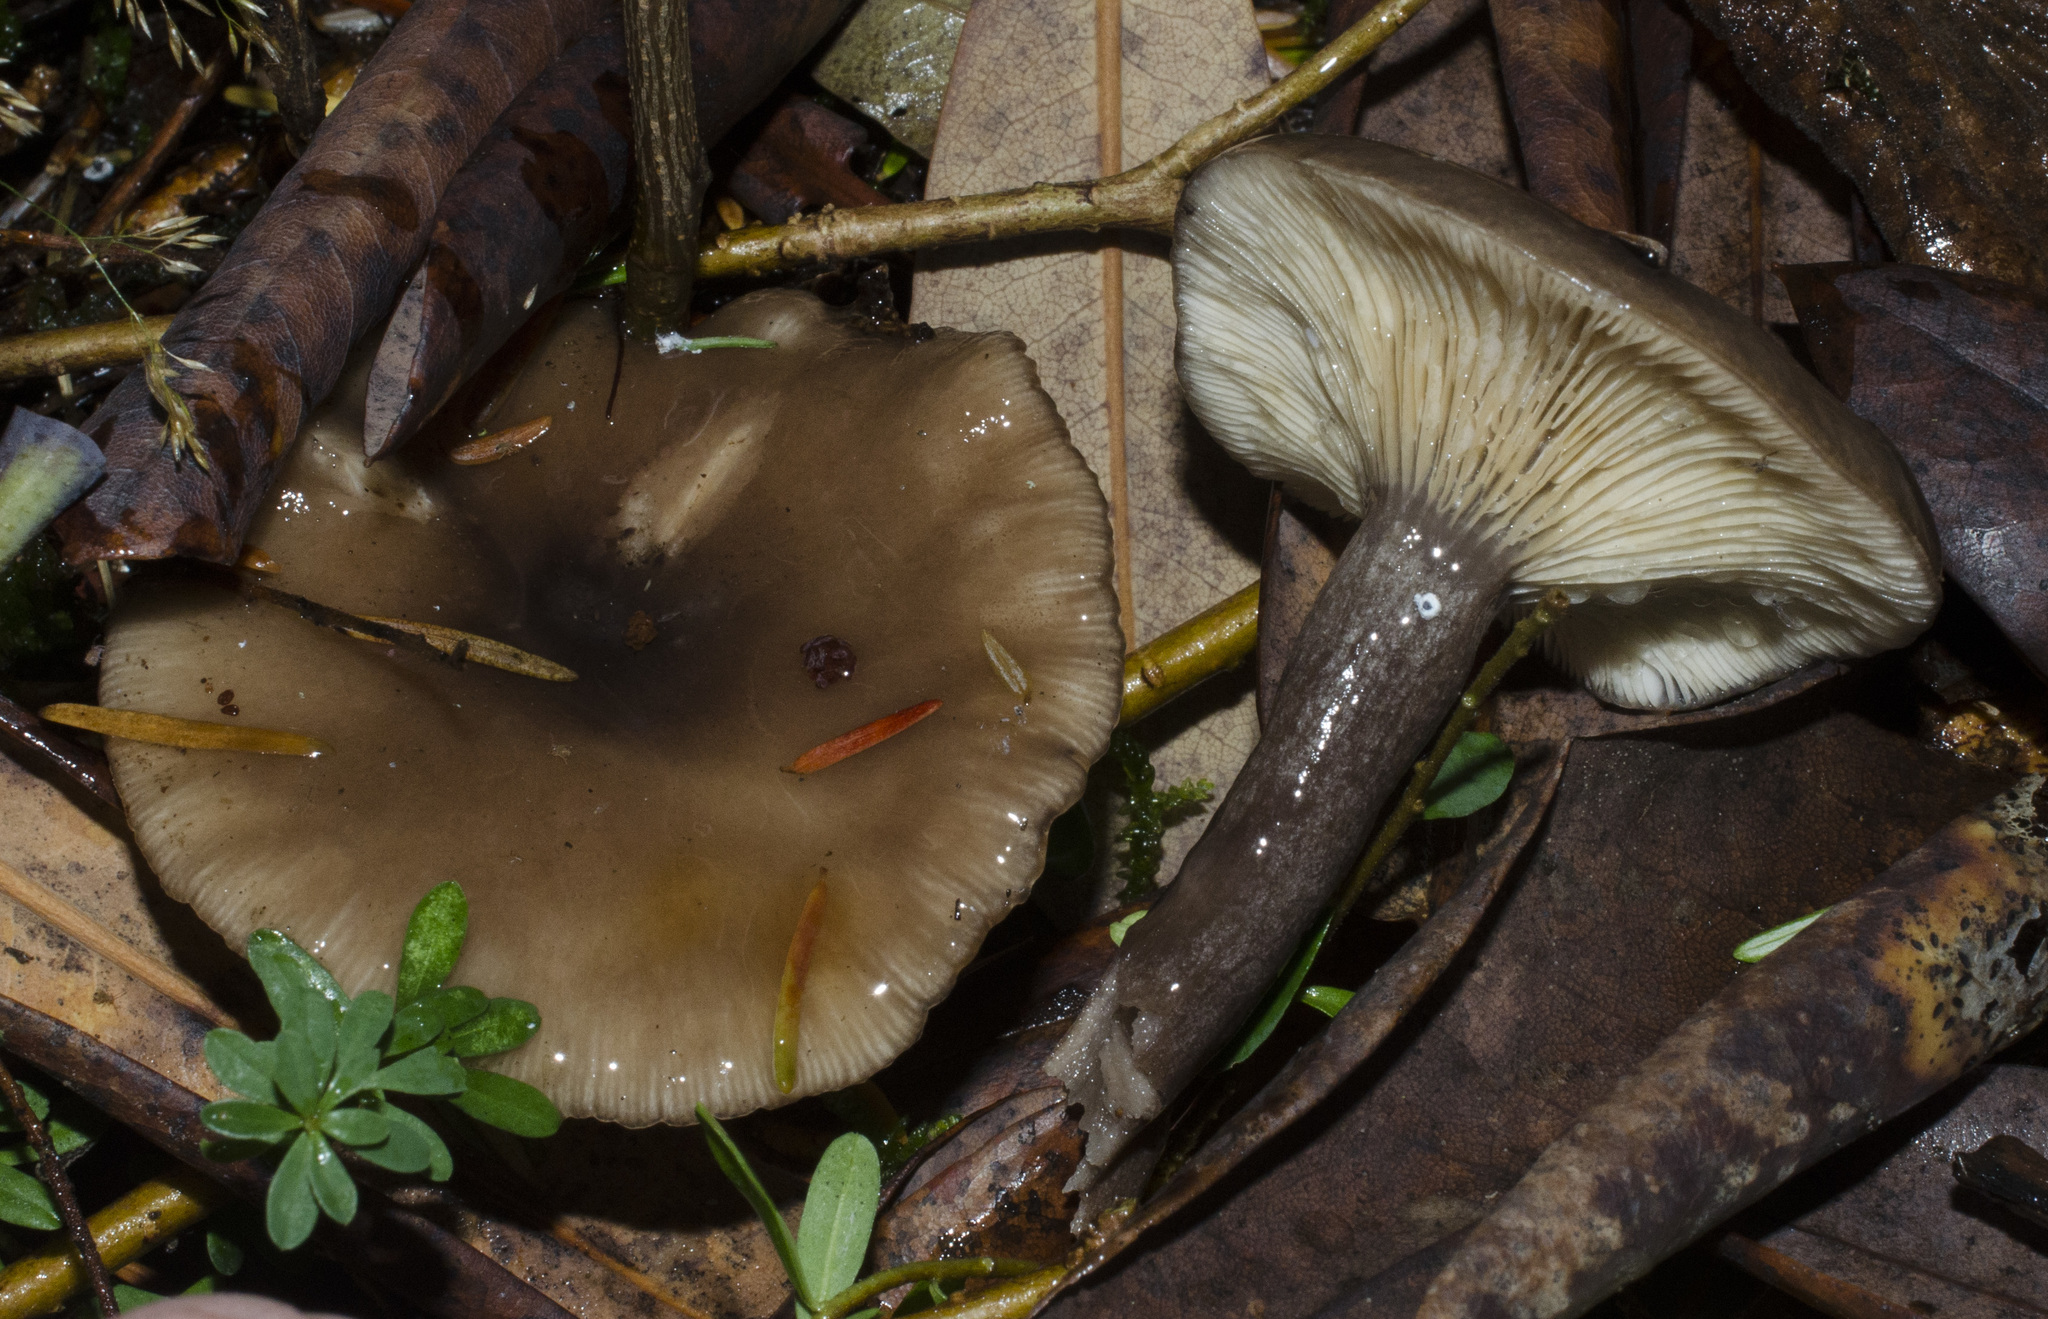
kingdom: Fungi
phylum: Basidiomycota
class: Agaricomycetes
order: Russulales
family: Russulaceae
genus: Lactarius
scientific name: Lactarius pseudomucidus
